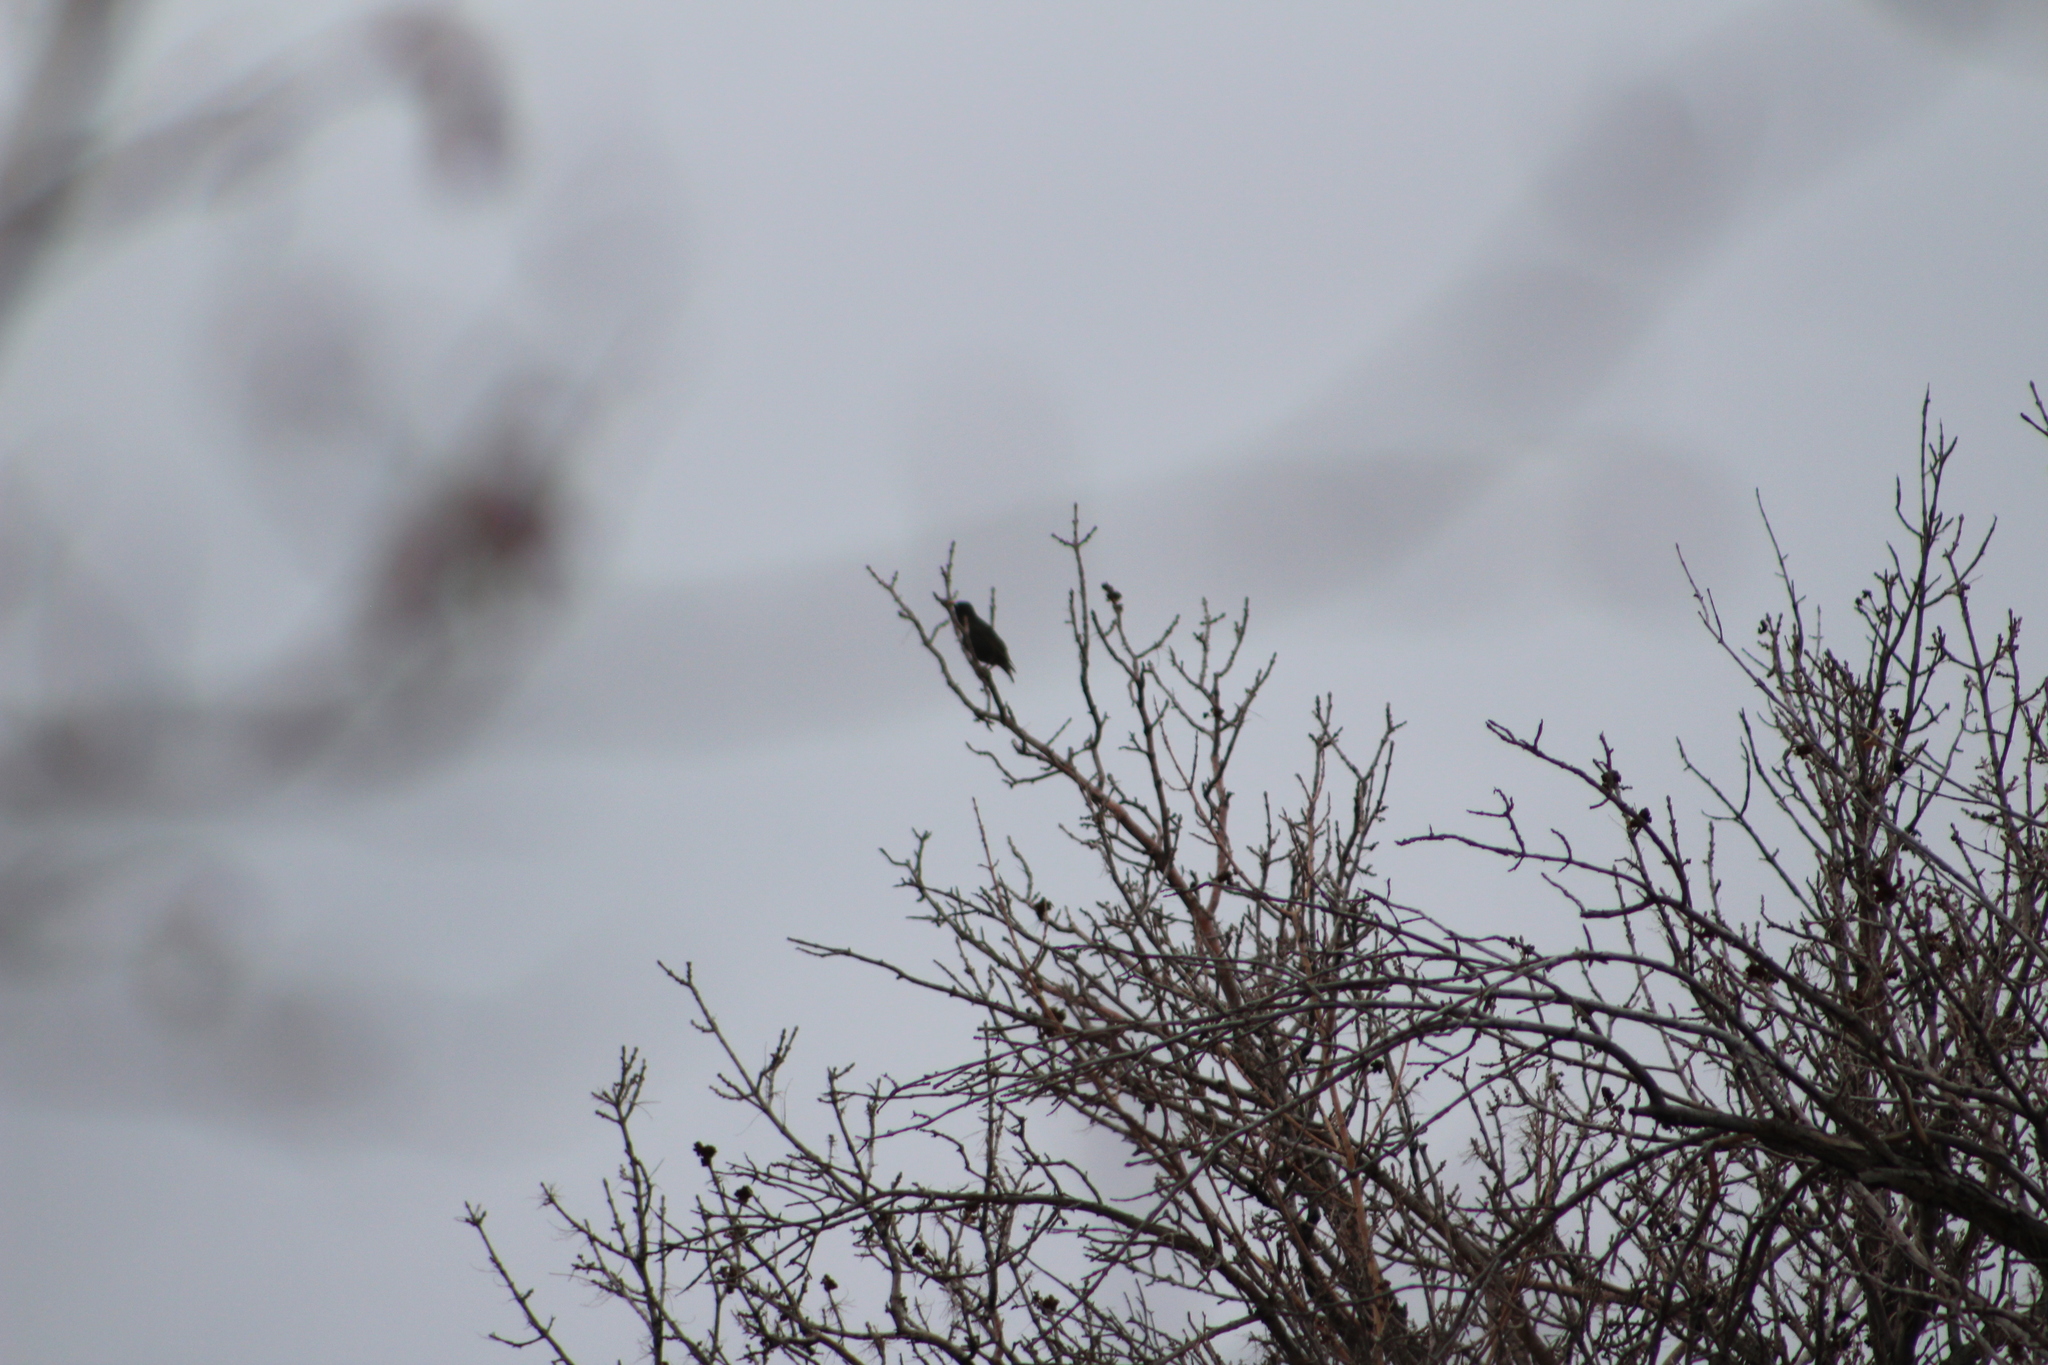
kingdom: Animalia
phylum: Chordata
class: Aves
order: Passeriformes
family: Sturnidae
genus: Sturnus
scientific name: Sturnus vulgaris
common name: Common starling
